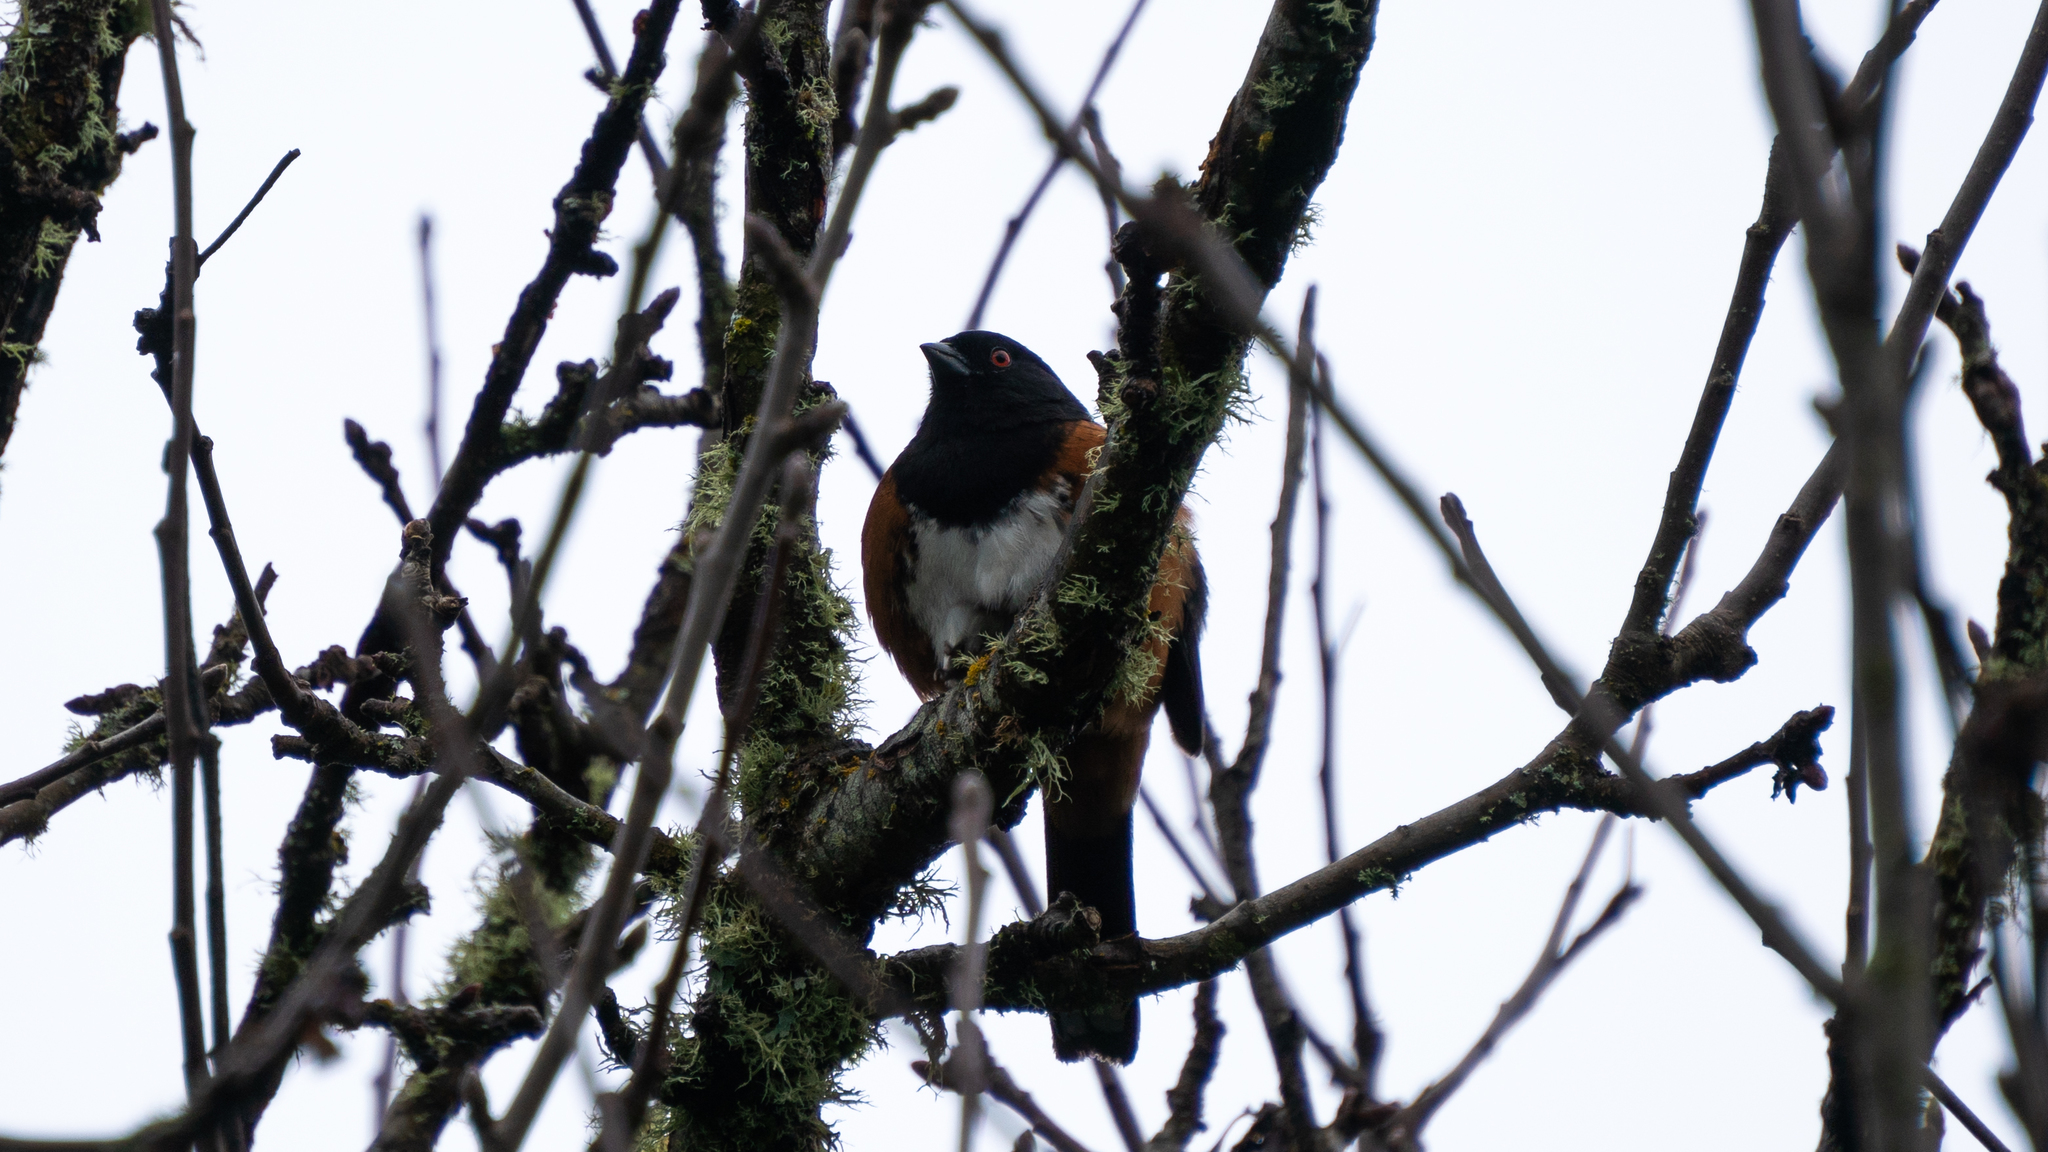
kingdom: Animalia
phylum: Chordata
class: Aves
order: Passeriformes
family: Passerellidae
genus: Pipilo
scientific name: Pipilo maculatus
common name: Spotted towhee
